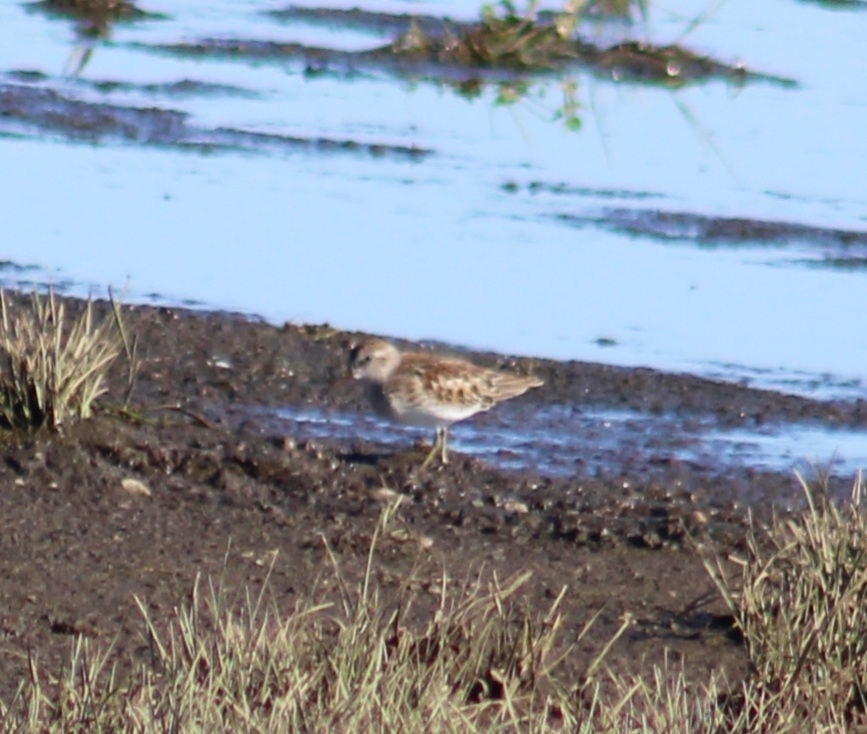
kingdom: Animalia
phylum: Chordata
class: Aves
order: Charadriiformes
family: Scolopacidae
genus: Calidris
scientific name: Calidris minutilla
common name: Least sandpiper
